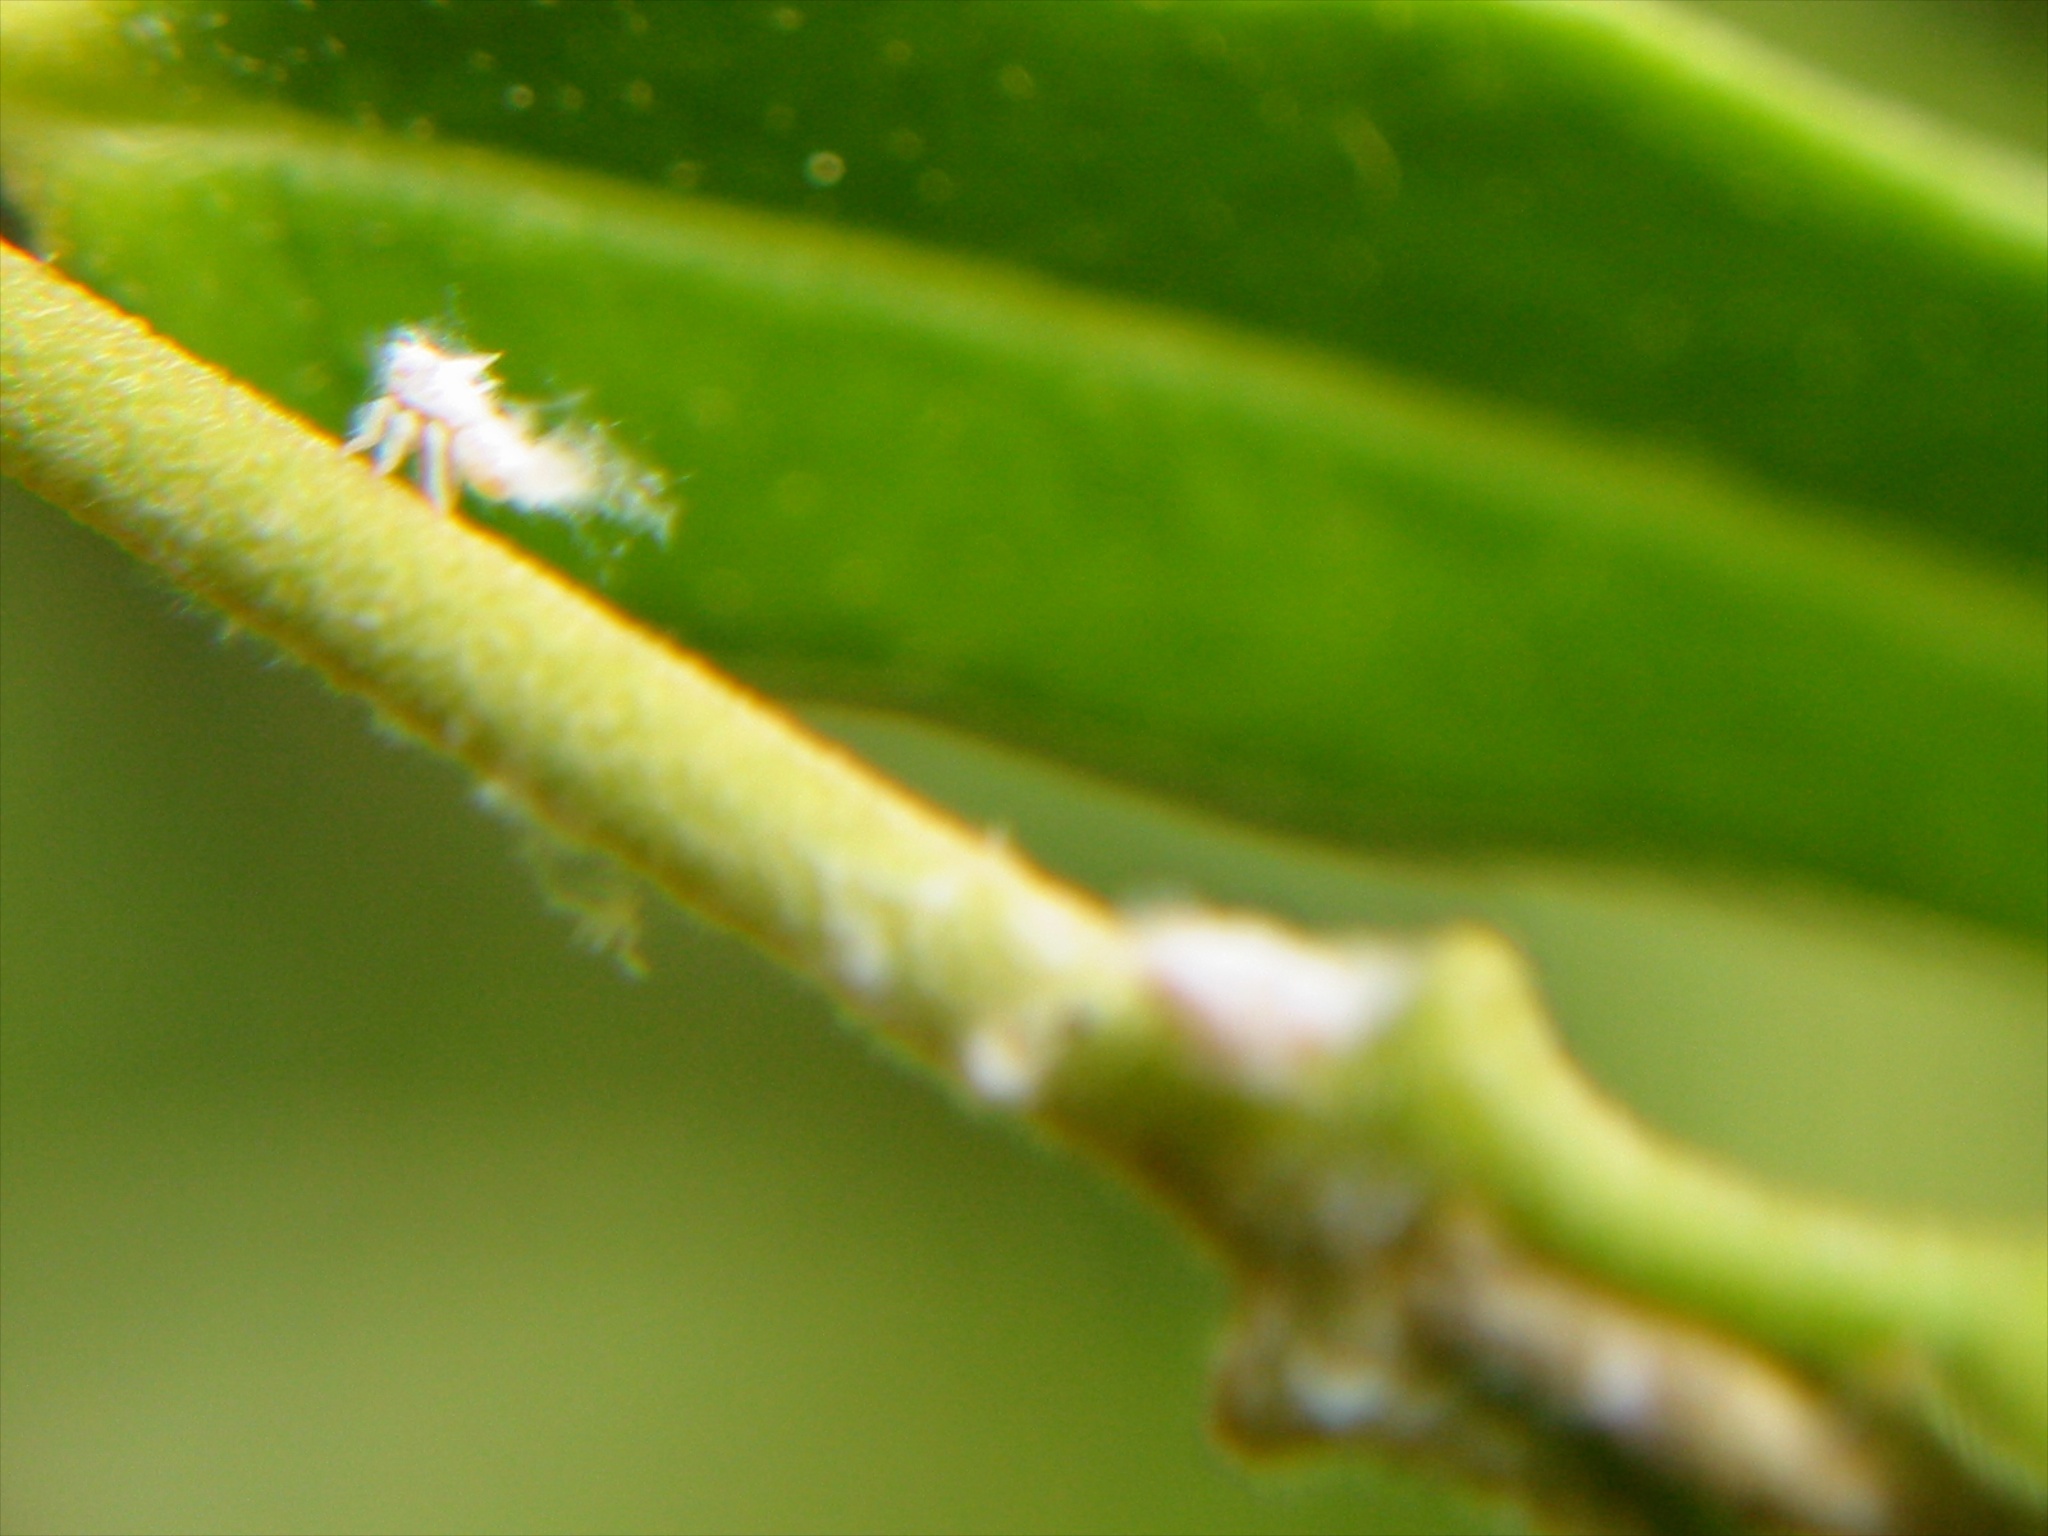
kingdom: Plantae
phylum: Tracheophyta
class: Magnoliopsida
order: Gentianales
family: Apocynaceae
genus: Parsonsia
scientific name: Parsonsia heterophylla
